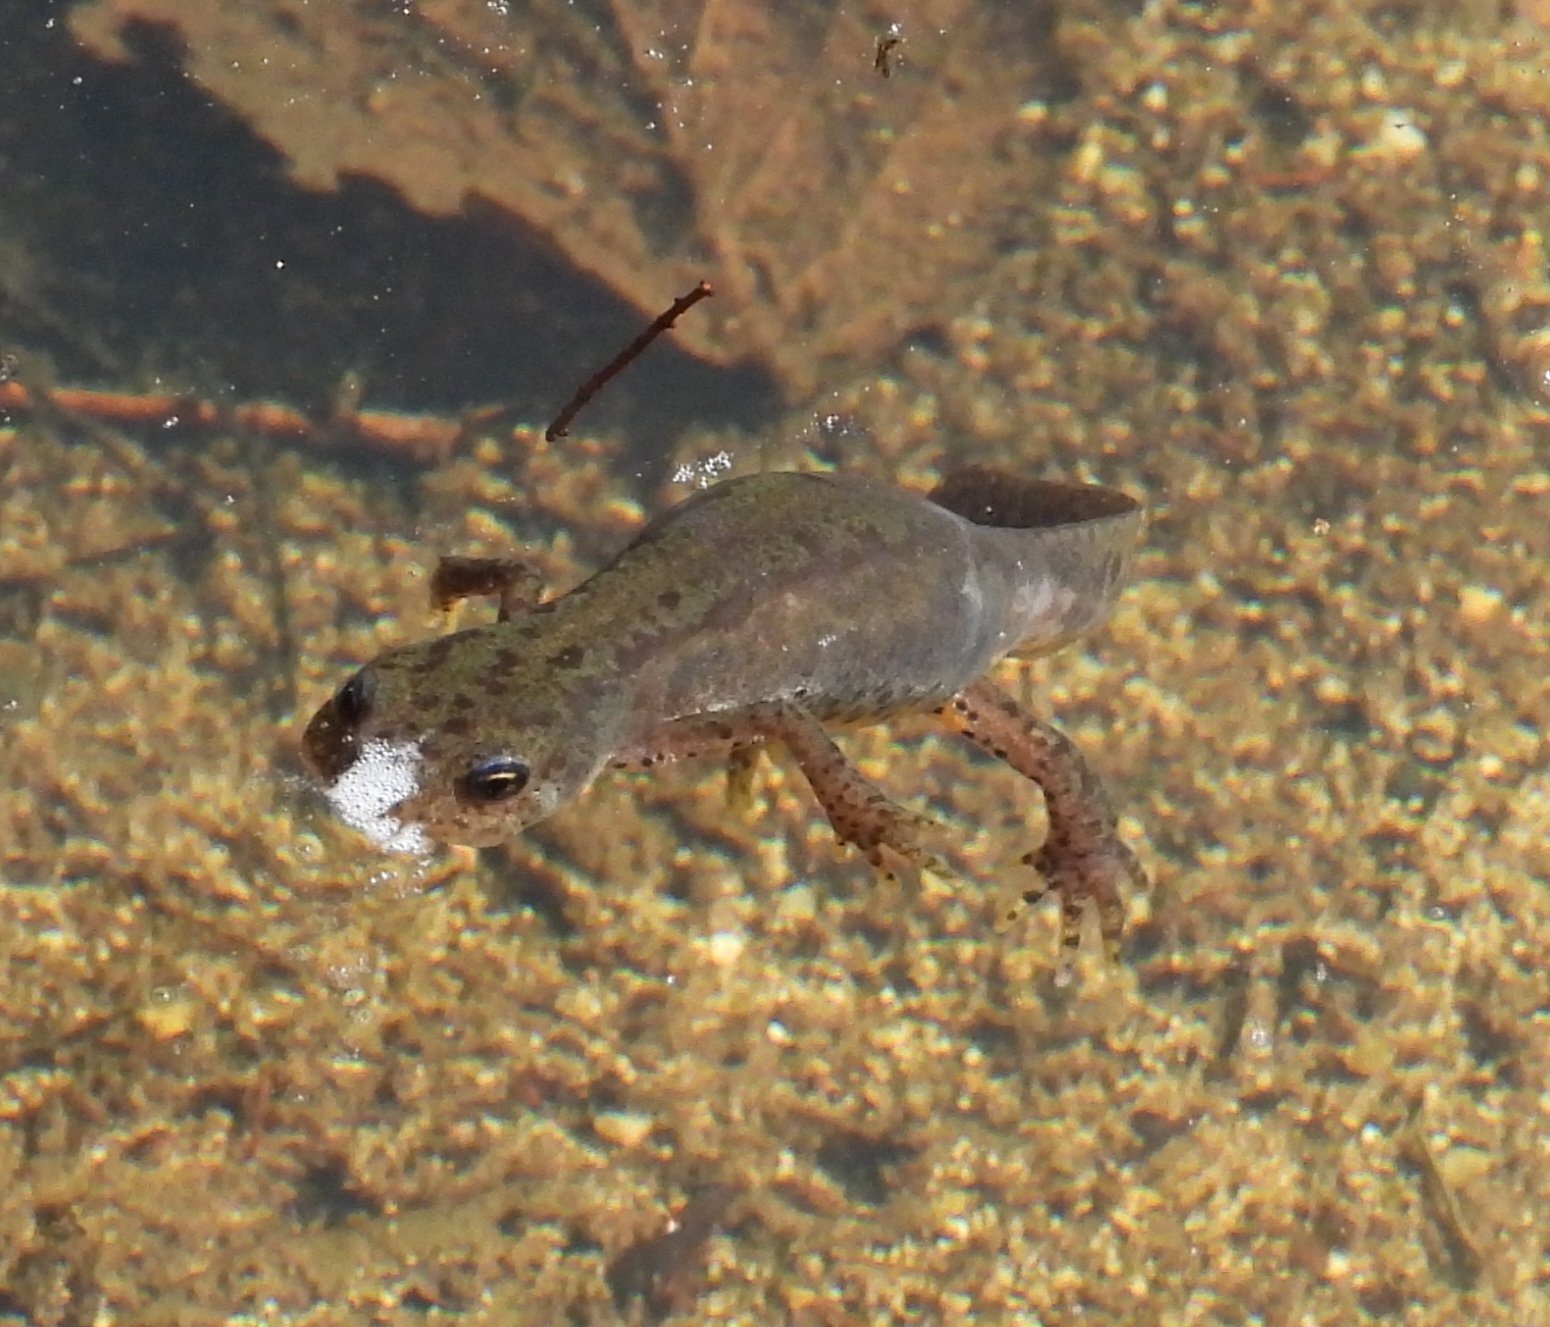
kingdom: Animalia
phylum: Chordata
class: Amphibia
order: Caudata
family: Salamandridae
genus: Ichthyosaura
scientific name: Ichthyosaura alpestris
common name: Alpine newt
